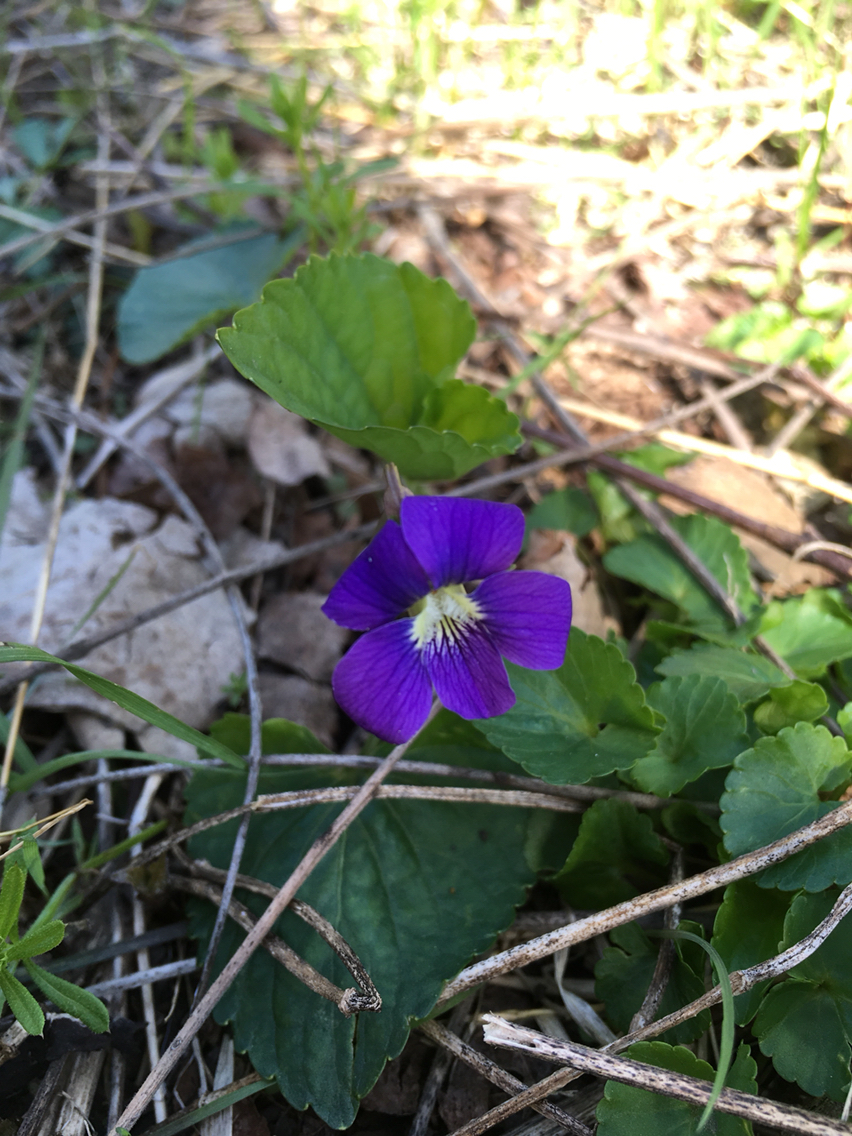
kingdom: Plantae
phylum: Tracheophyta
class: Magnoliopsida
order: Malpighiales
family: Violaceae
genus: Viola
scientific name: Viola sororia
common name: Dooryard violet
